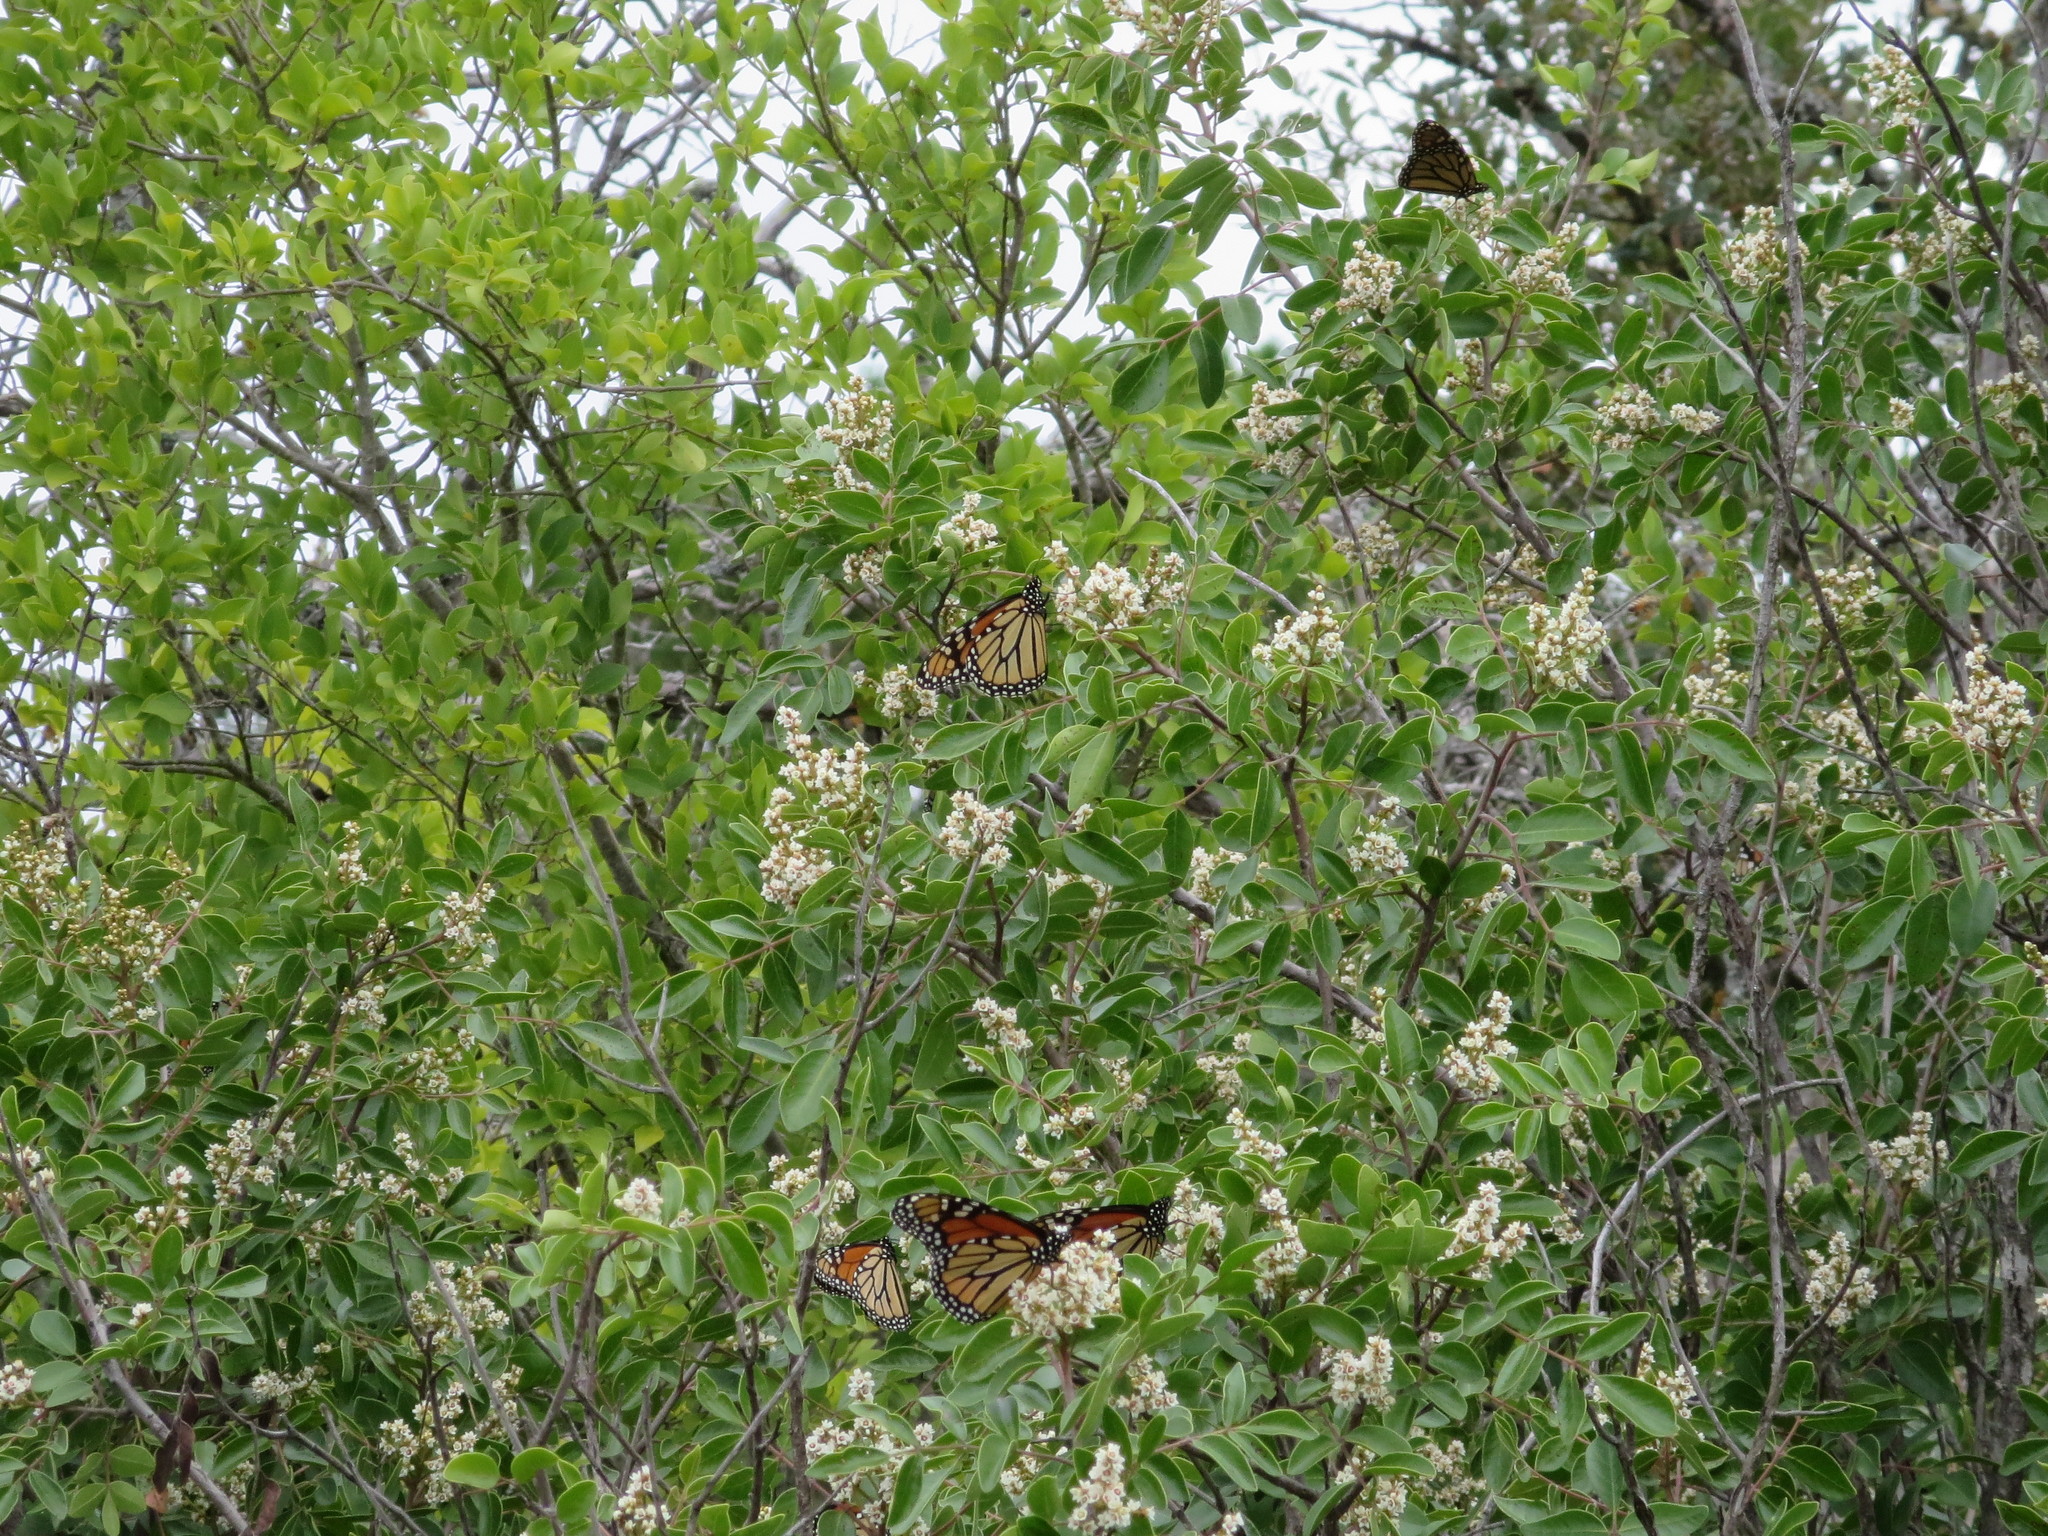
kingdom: Animalia
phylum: Arthropoda
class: Insecta
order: Lepidoptera
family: Nymphalidae
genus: Danaus
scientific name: Danaus plexippus
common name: Monarch
